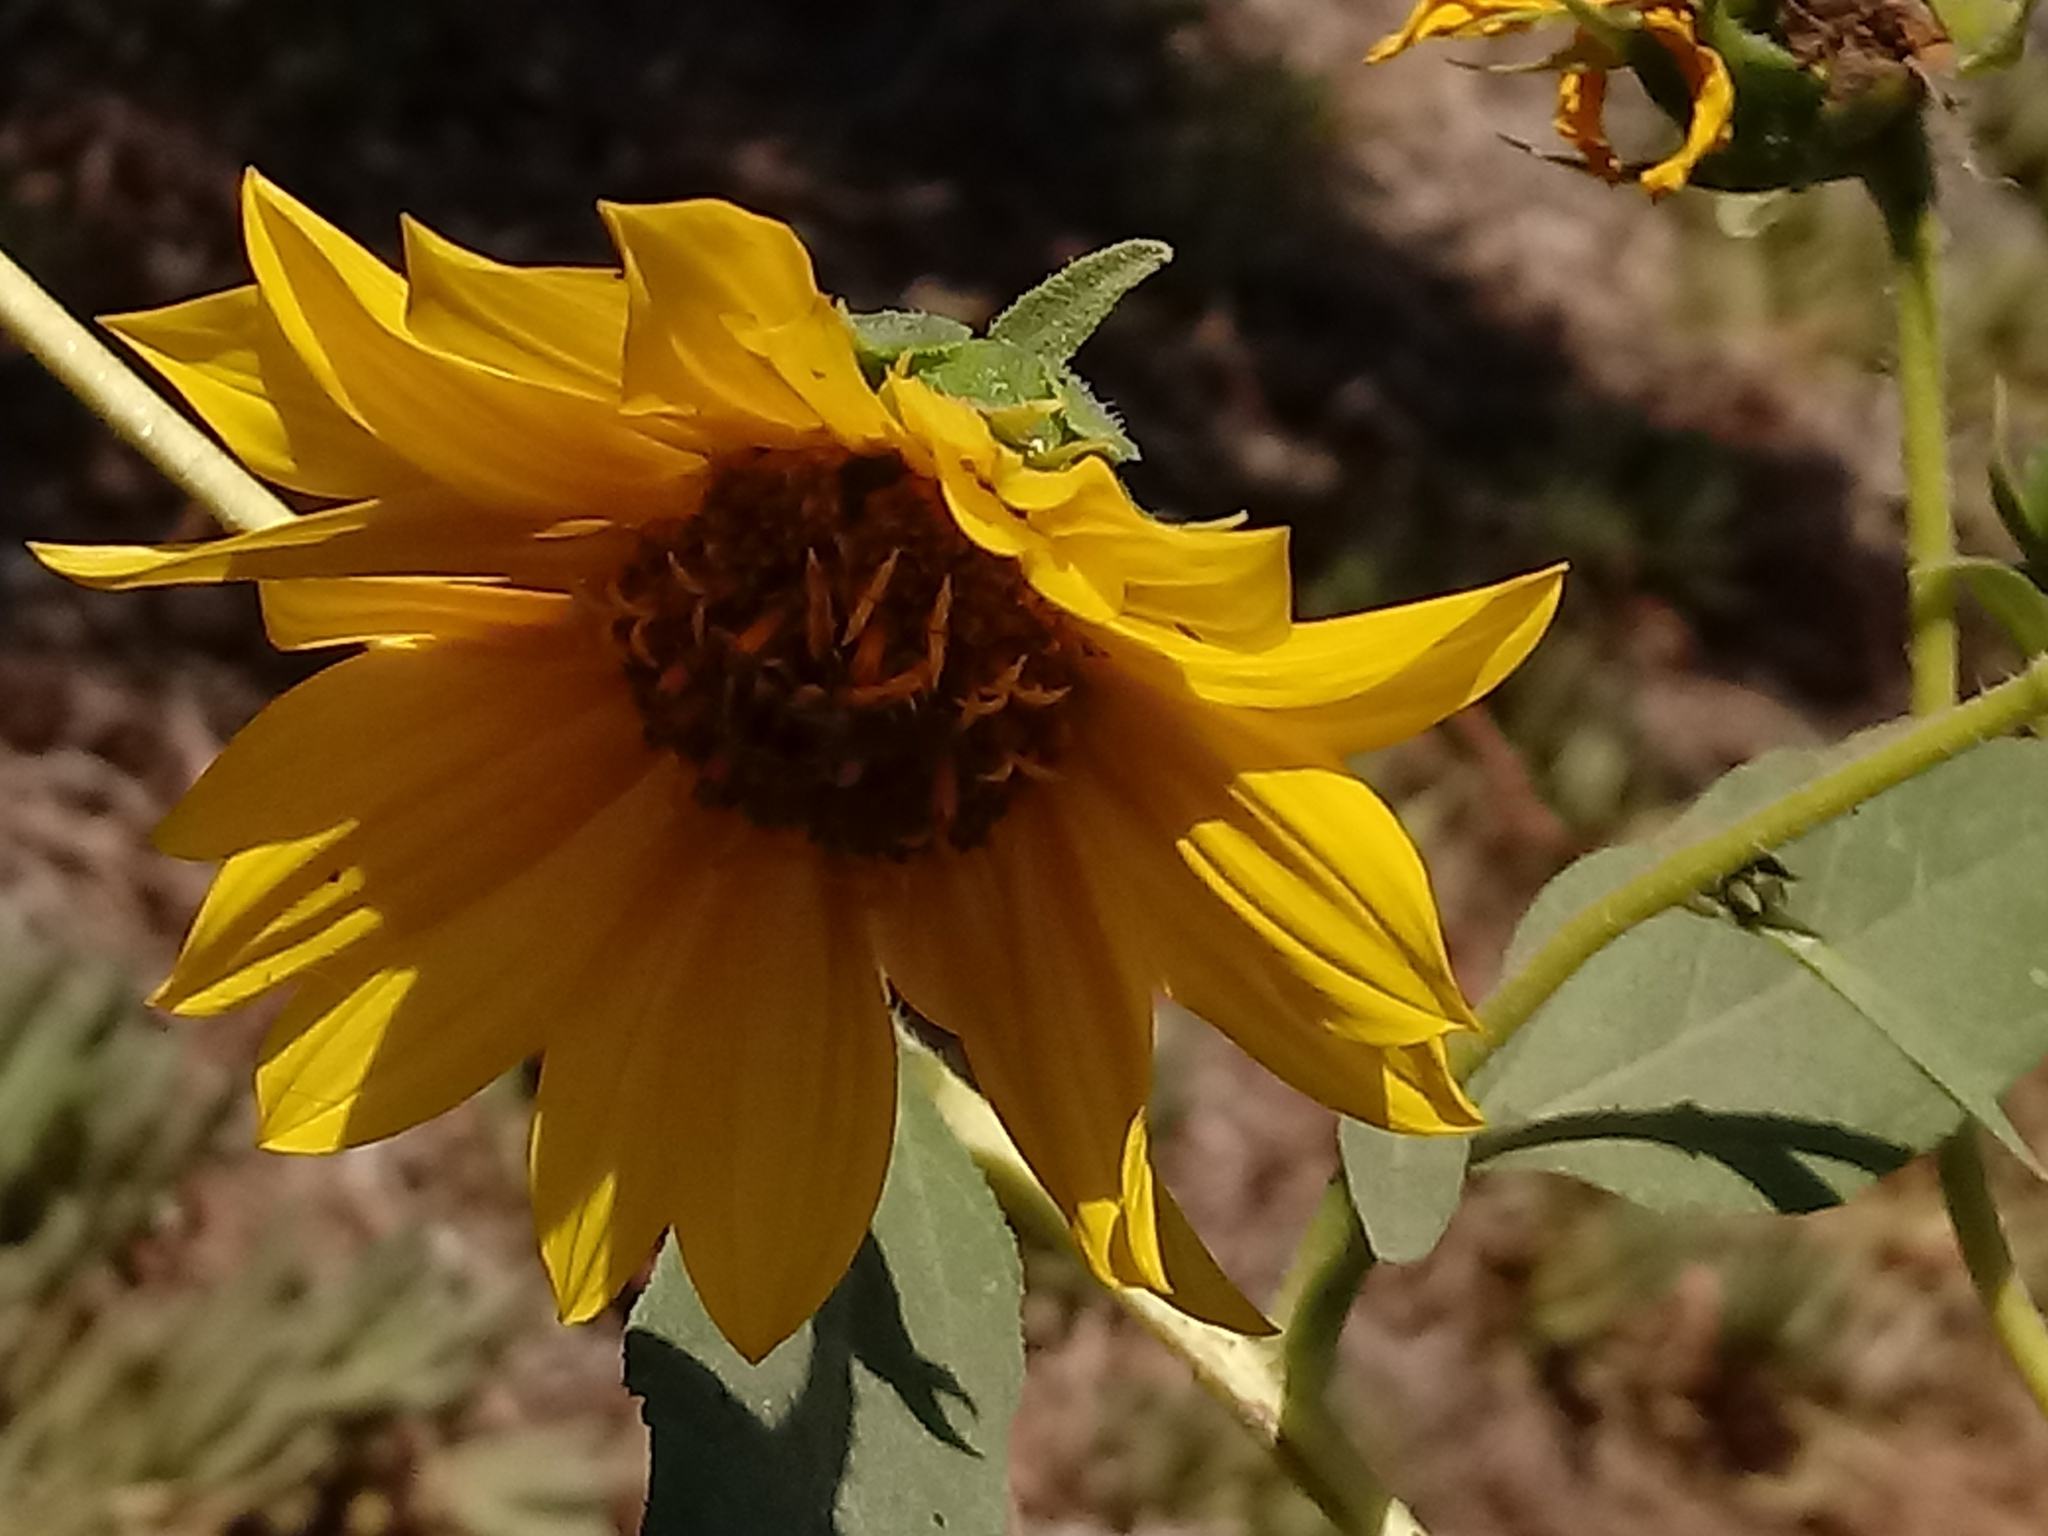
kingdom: Plantae
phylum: Tracheophyta
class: Magnoliopsida
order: Asterales
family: Asteraceae
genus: Helianthus
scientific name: Helianthus annuus
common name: Sunflower
